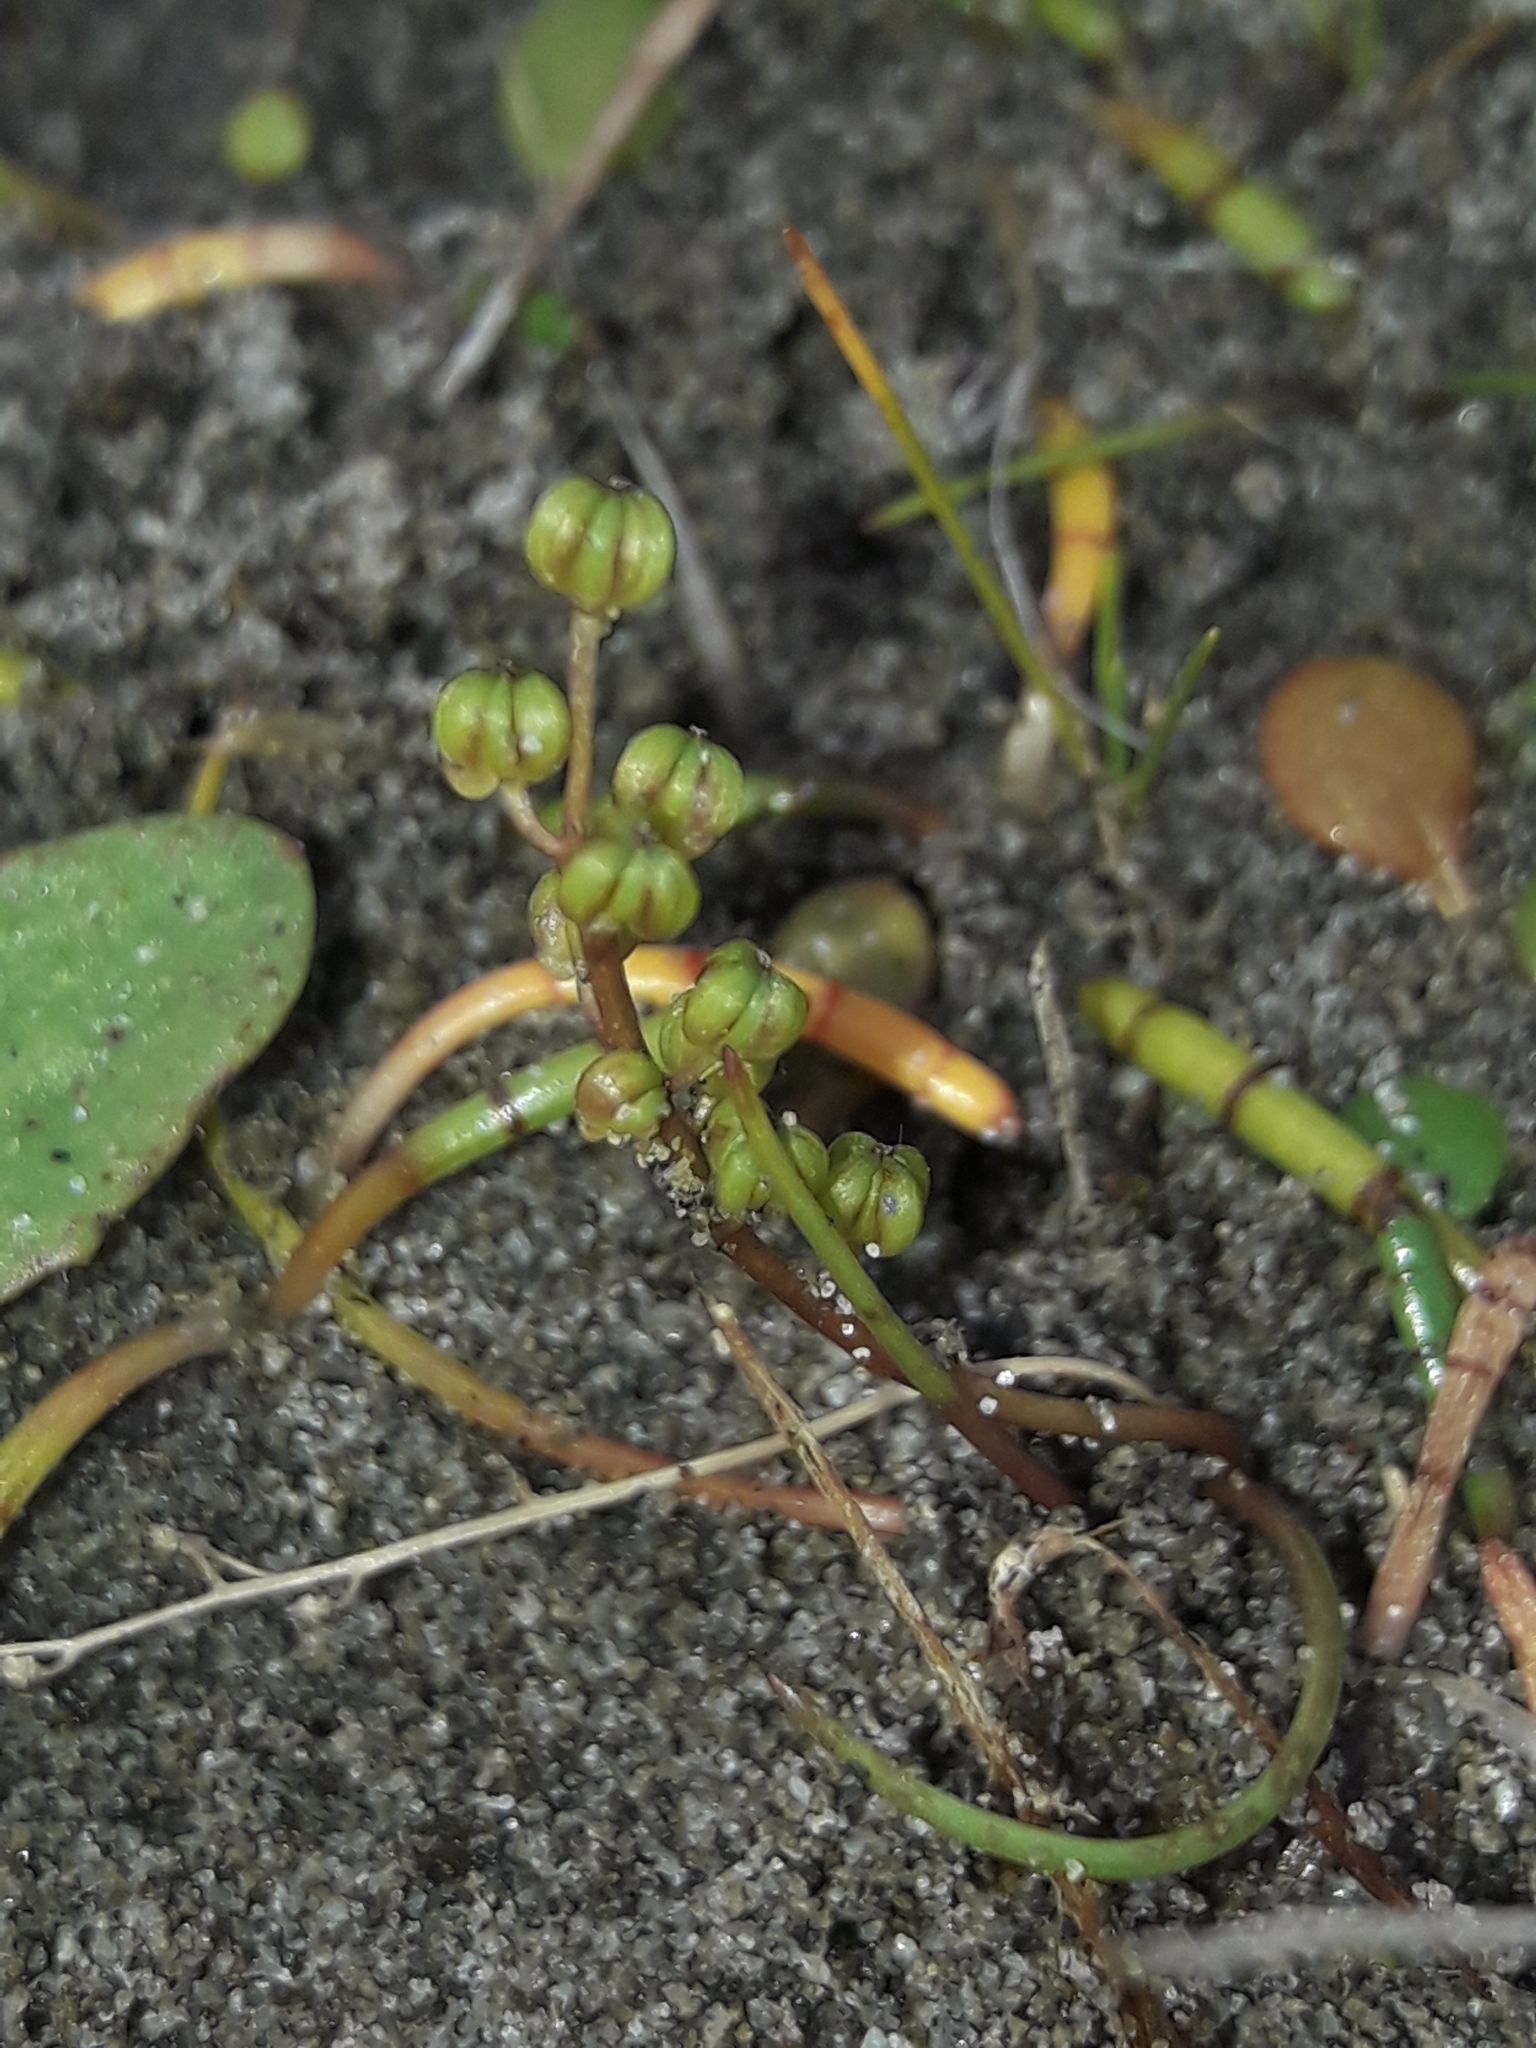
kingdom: Plantae
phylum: Tracheophyta
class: Liliopsida
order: Alismatales
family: Juncaginaceae
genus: Triglochin
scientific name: Triglochin striata
